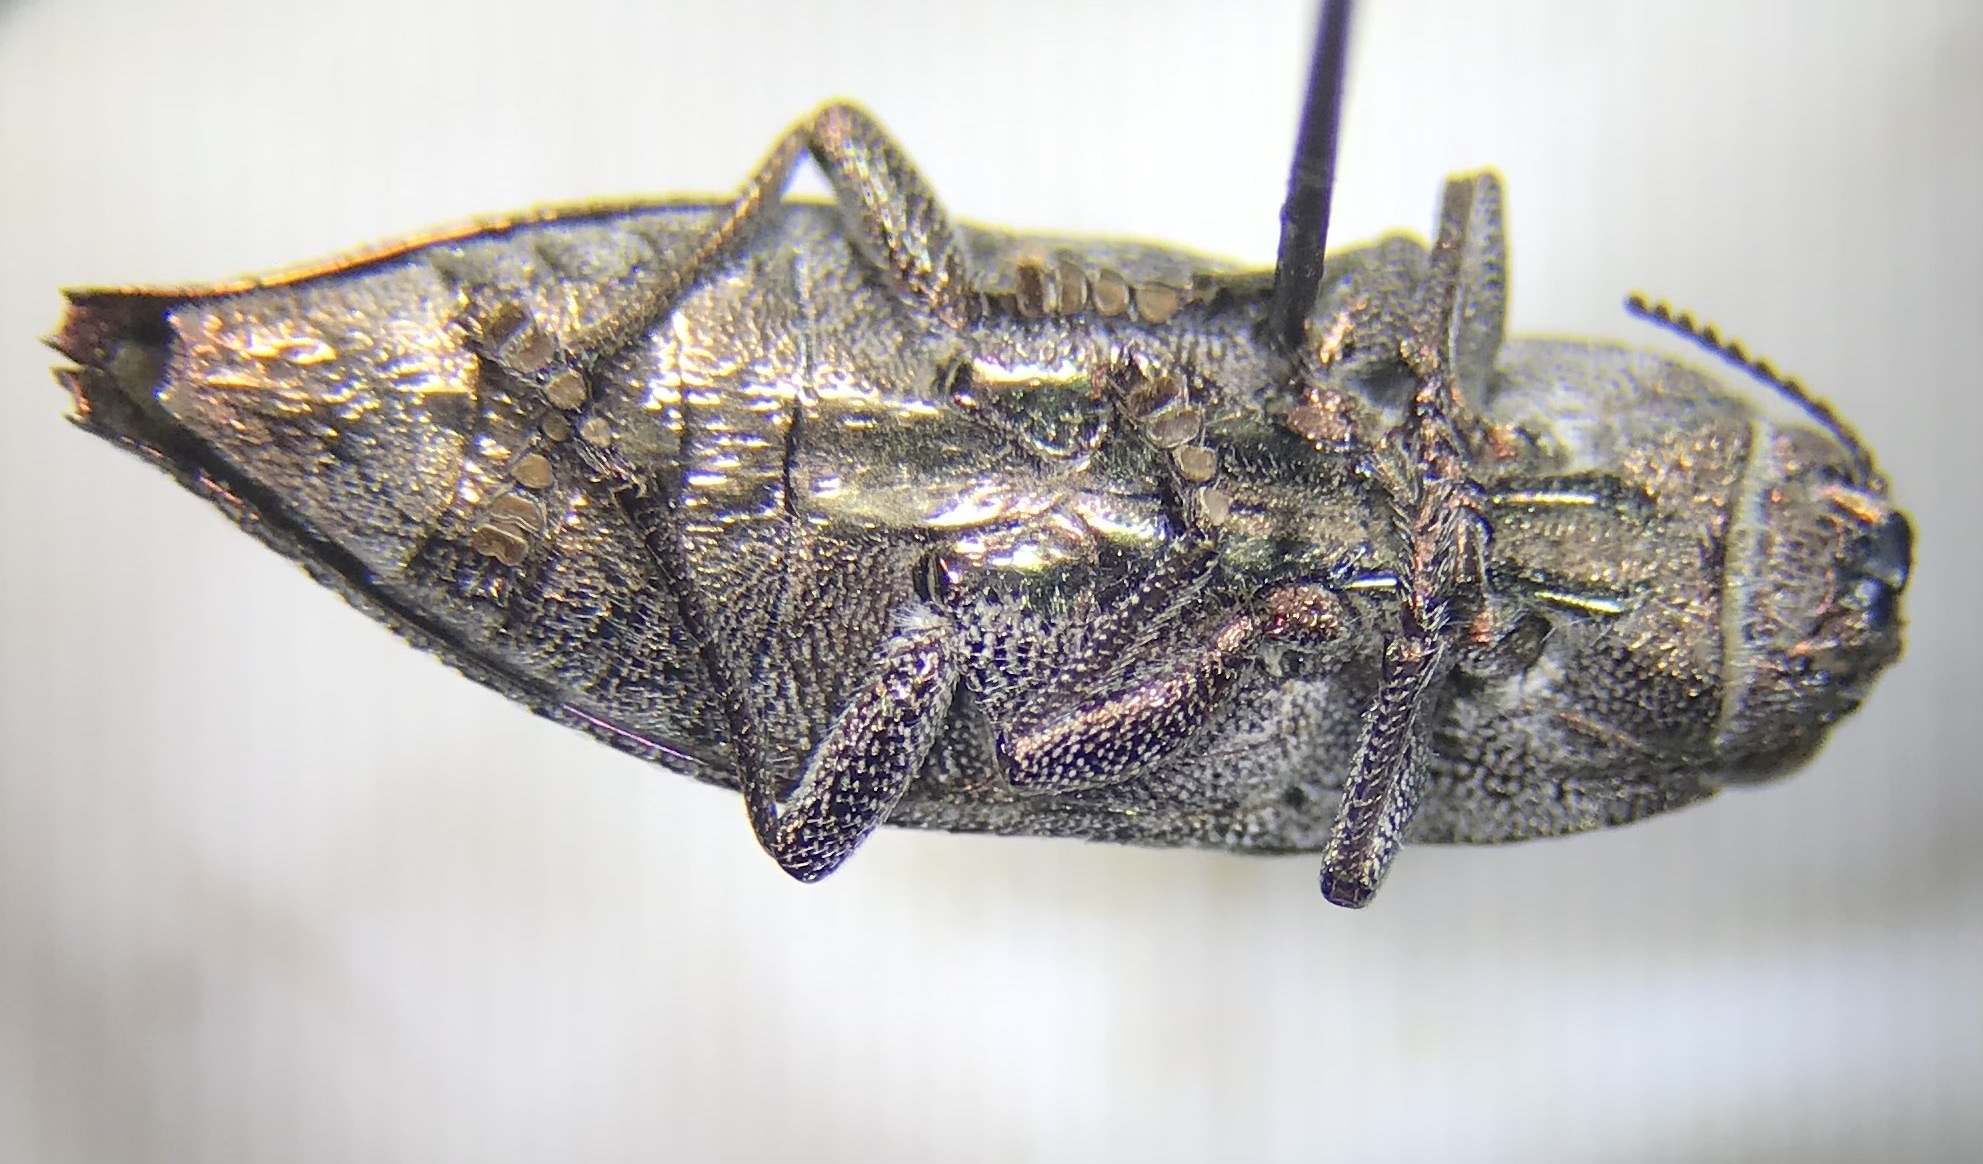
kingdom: Animalia
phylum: Arthropoda
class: Insecta
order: Coleoptera
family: Buprestidae
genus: Dicerca
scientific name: Dicerca lurida
